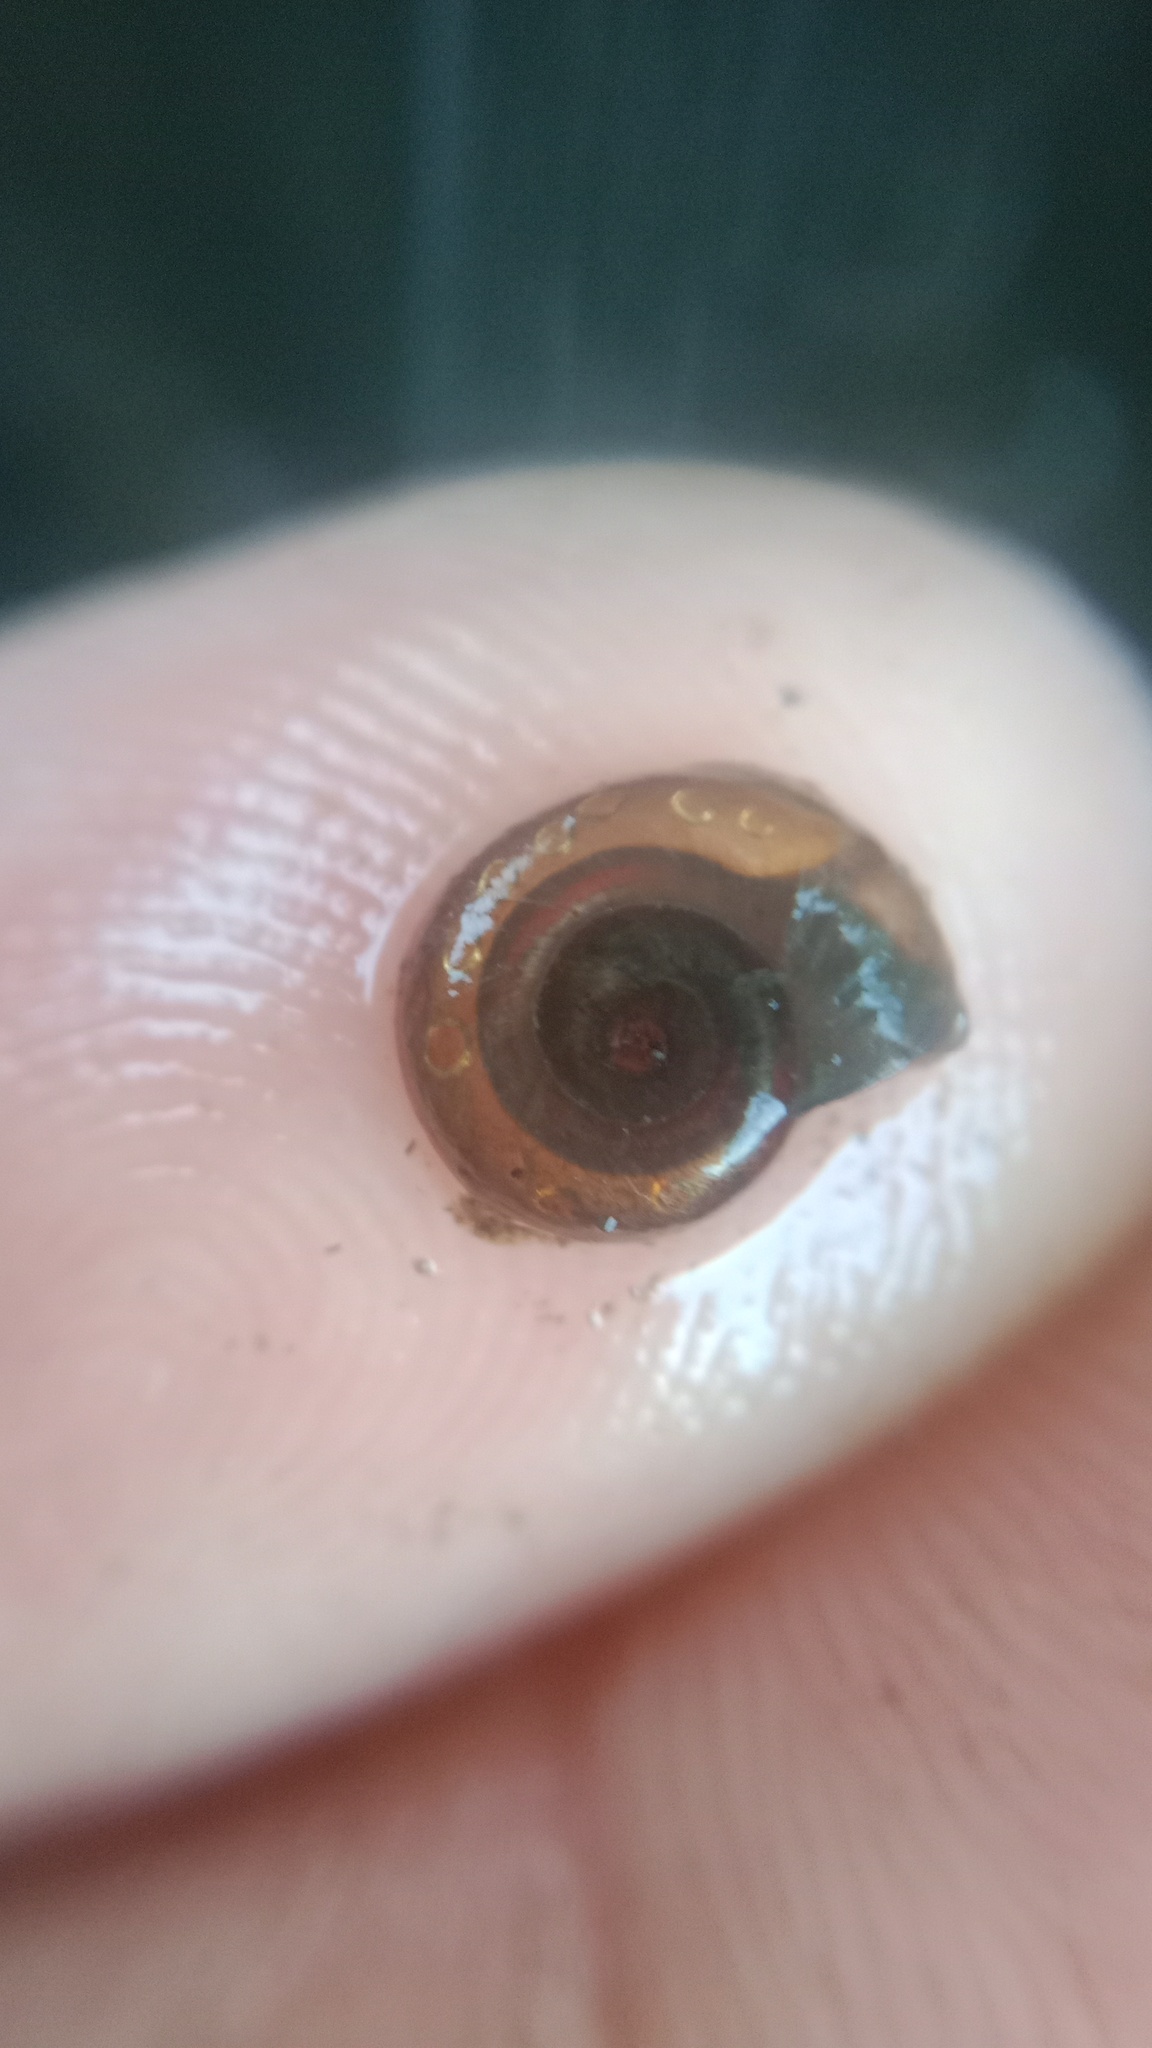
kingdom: Animalia
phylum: Mollusca
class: Gastropoda
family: Planorbidae
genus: Planorbis
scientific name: Planorbis planorbis
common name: Margined ramshorn
